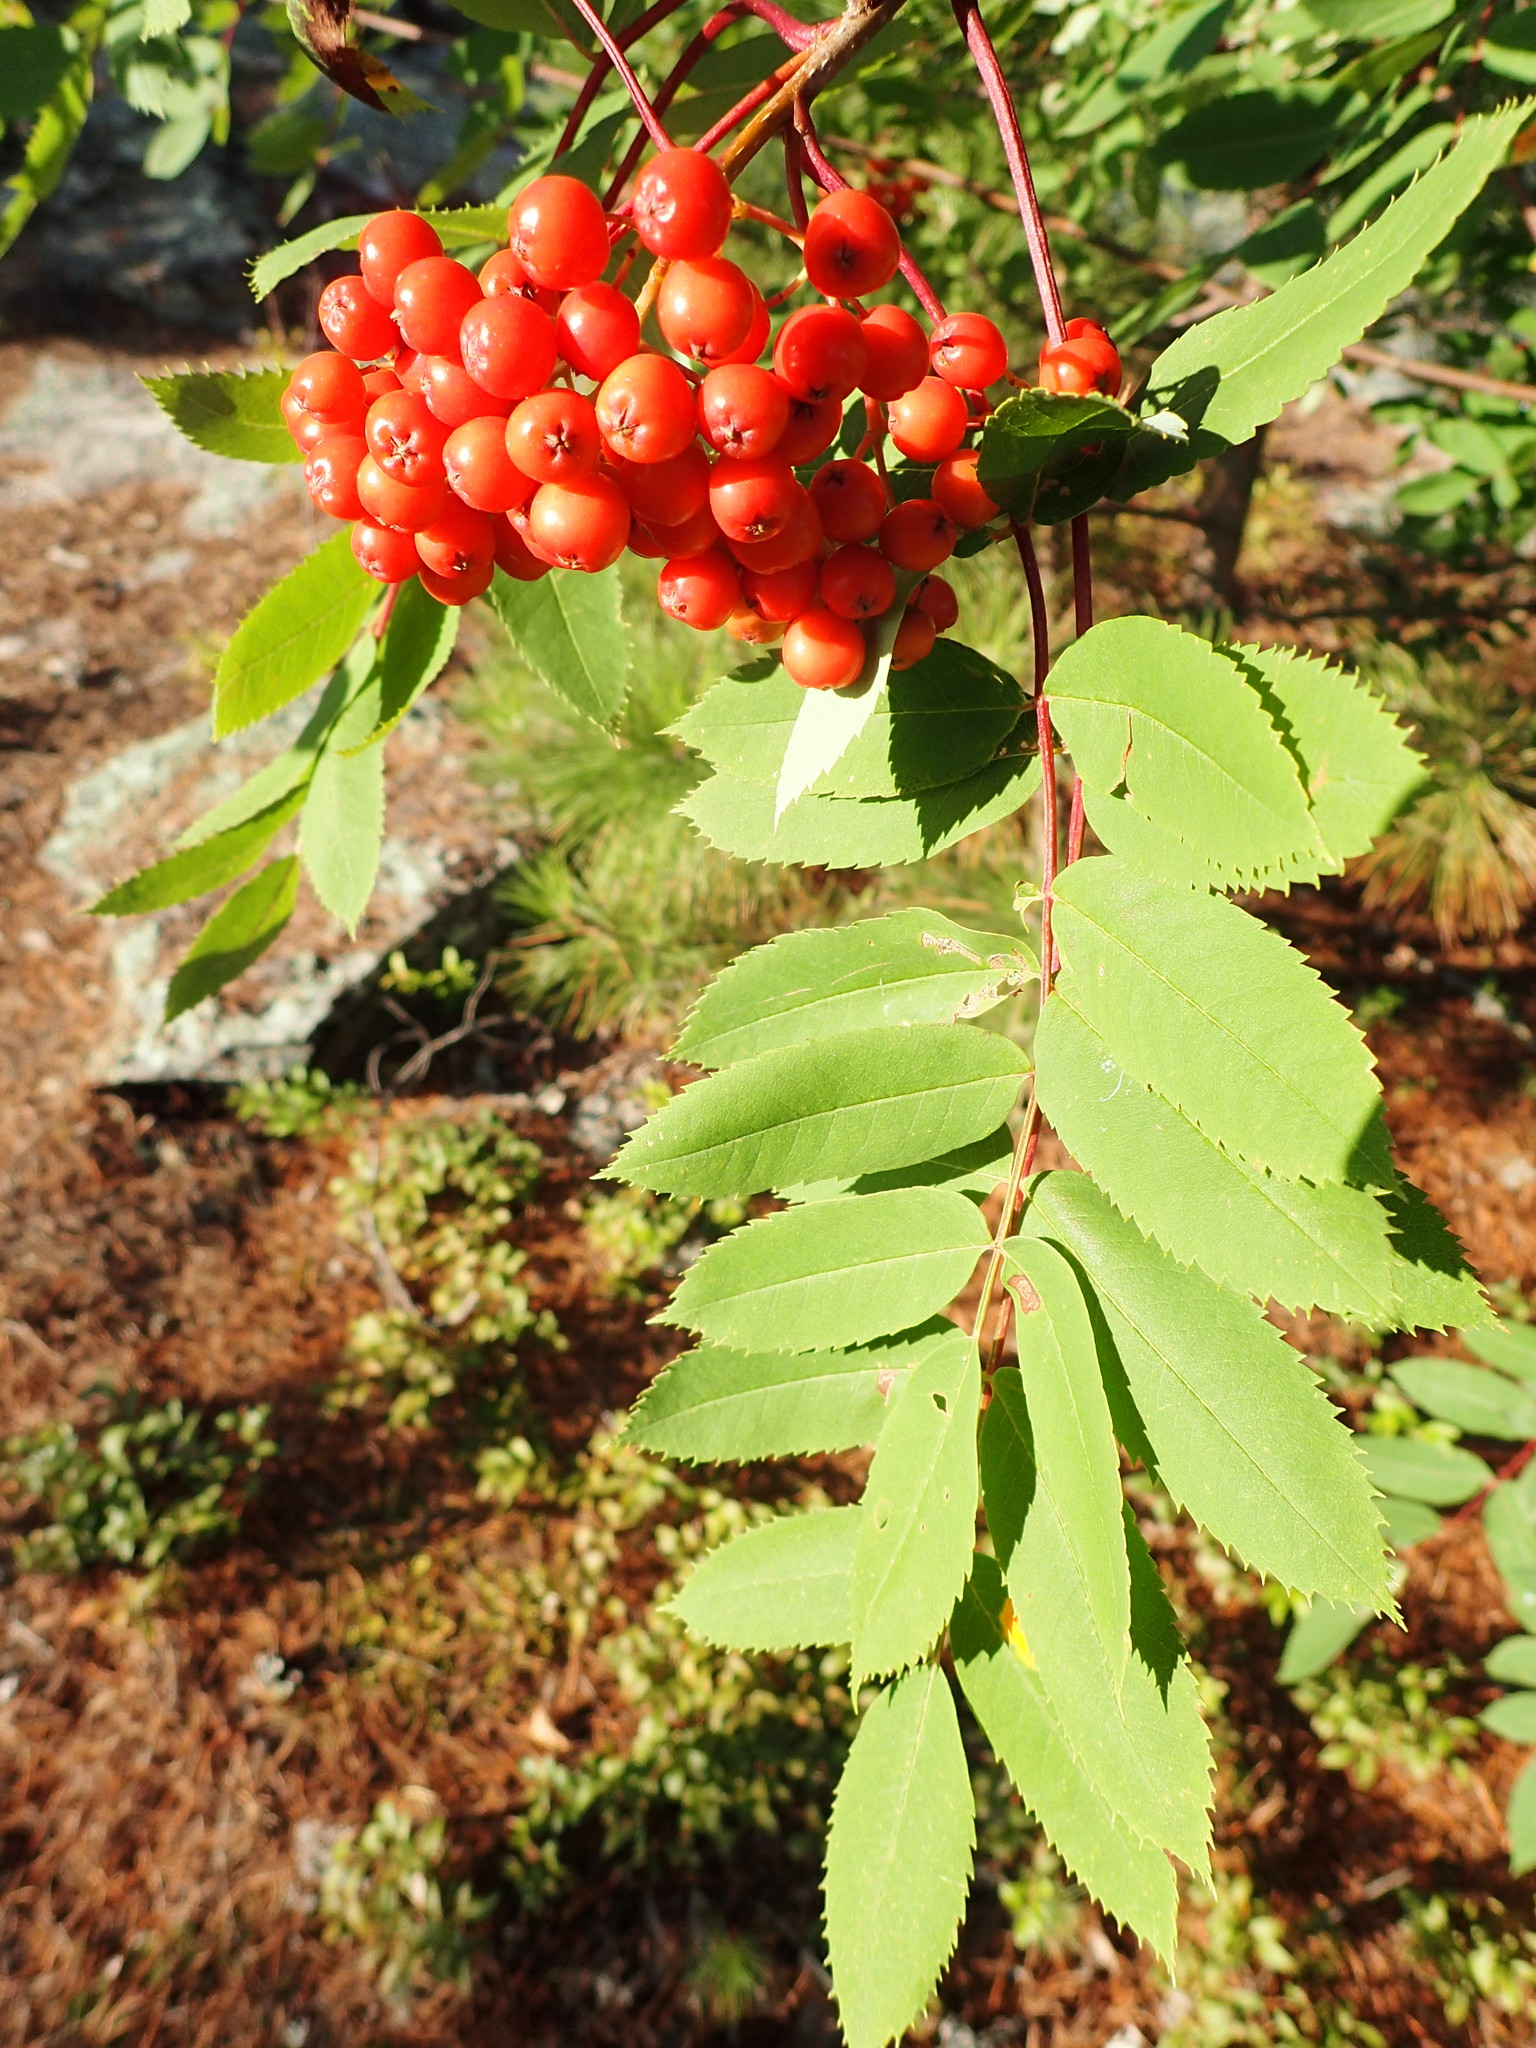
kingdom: Plantae
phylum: Tracheophyta
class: Magnoliopsida
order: Rosales
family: Rosaceae
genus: Sorbus
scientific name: Sorbus decora
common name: Northern mountain-ash
